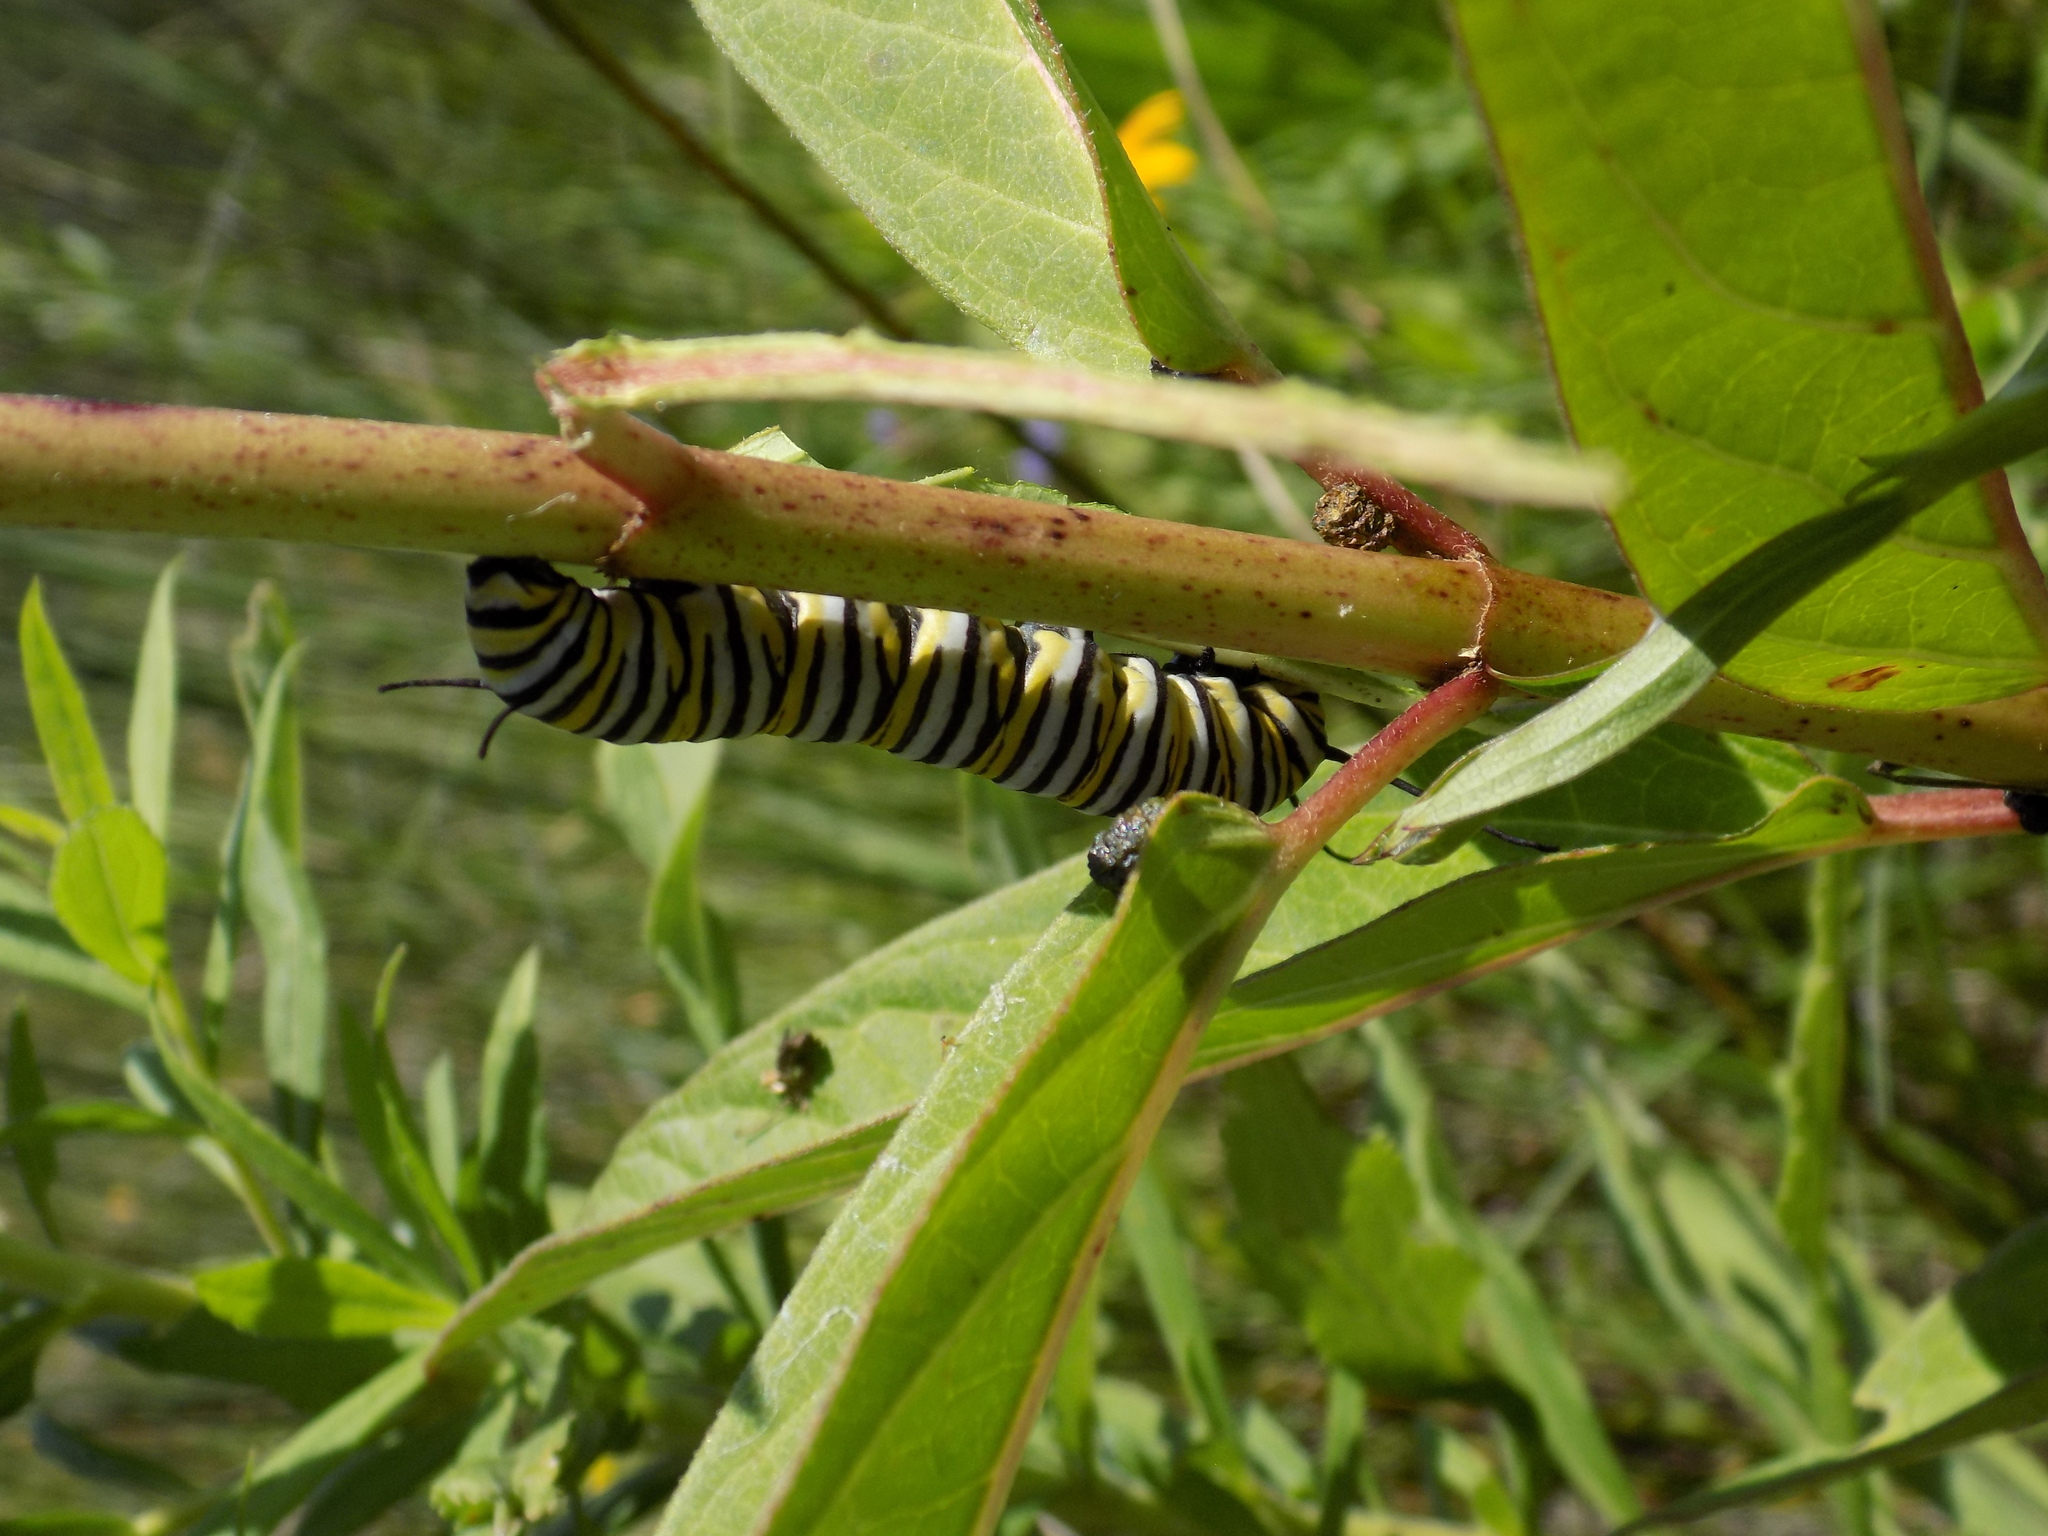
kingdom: Animalia
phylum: Arthropoda
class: Insecta
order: Lepidoptera
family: Nymphalidae
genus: Danaus
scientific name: Danaus plexippus
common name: Monarch
